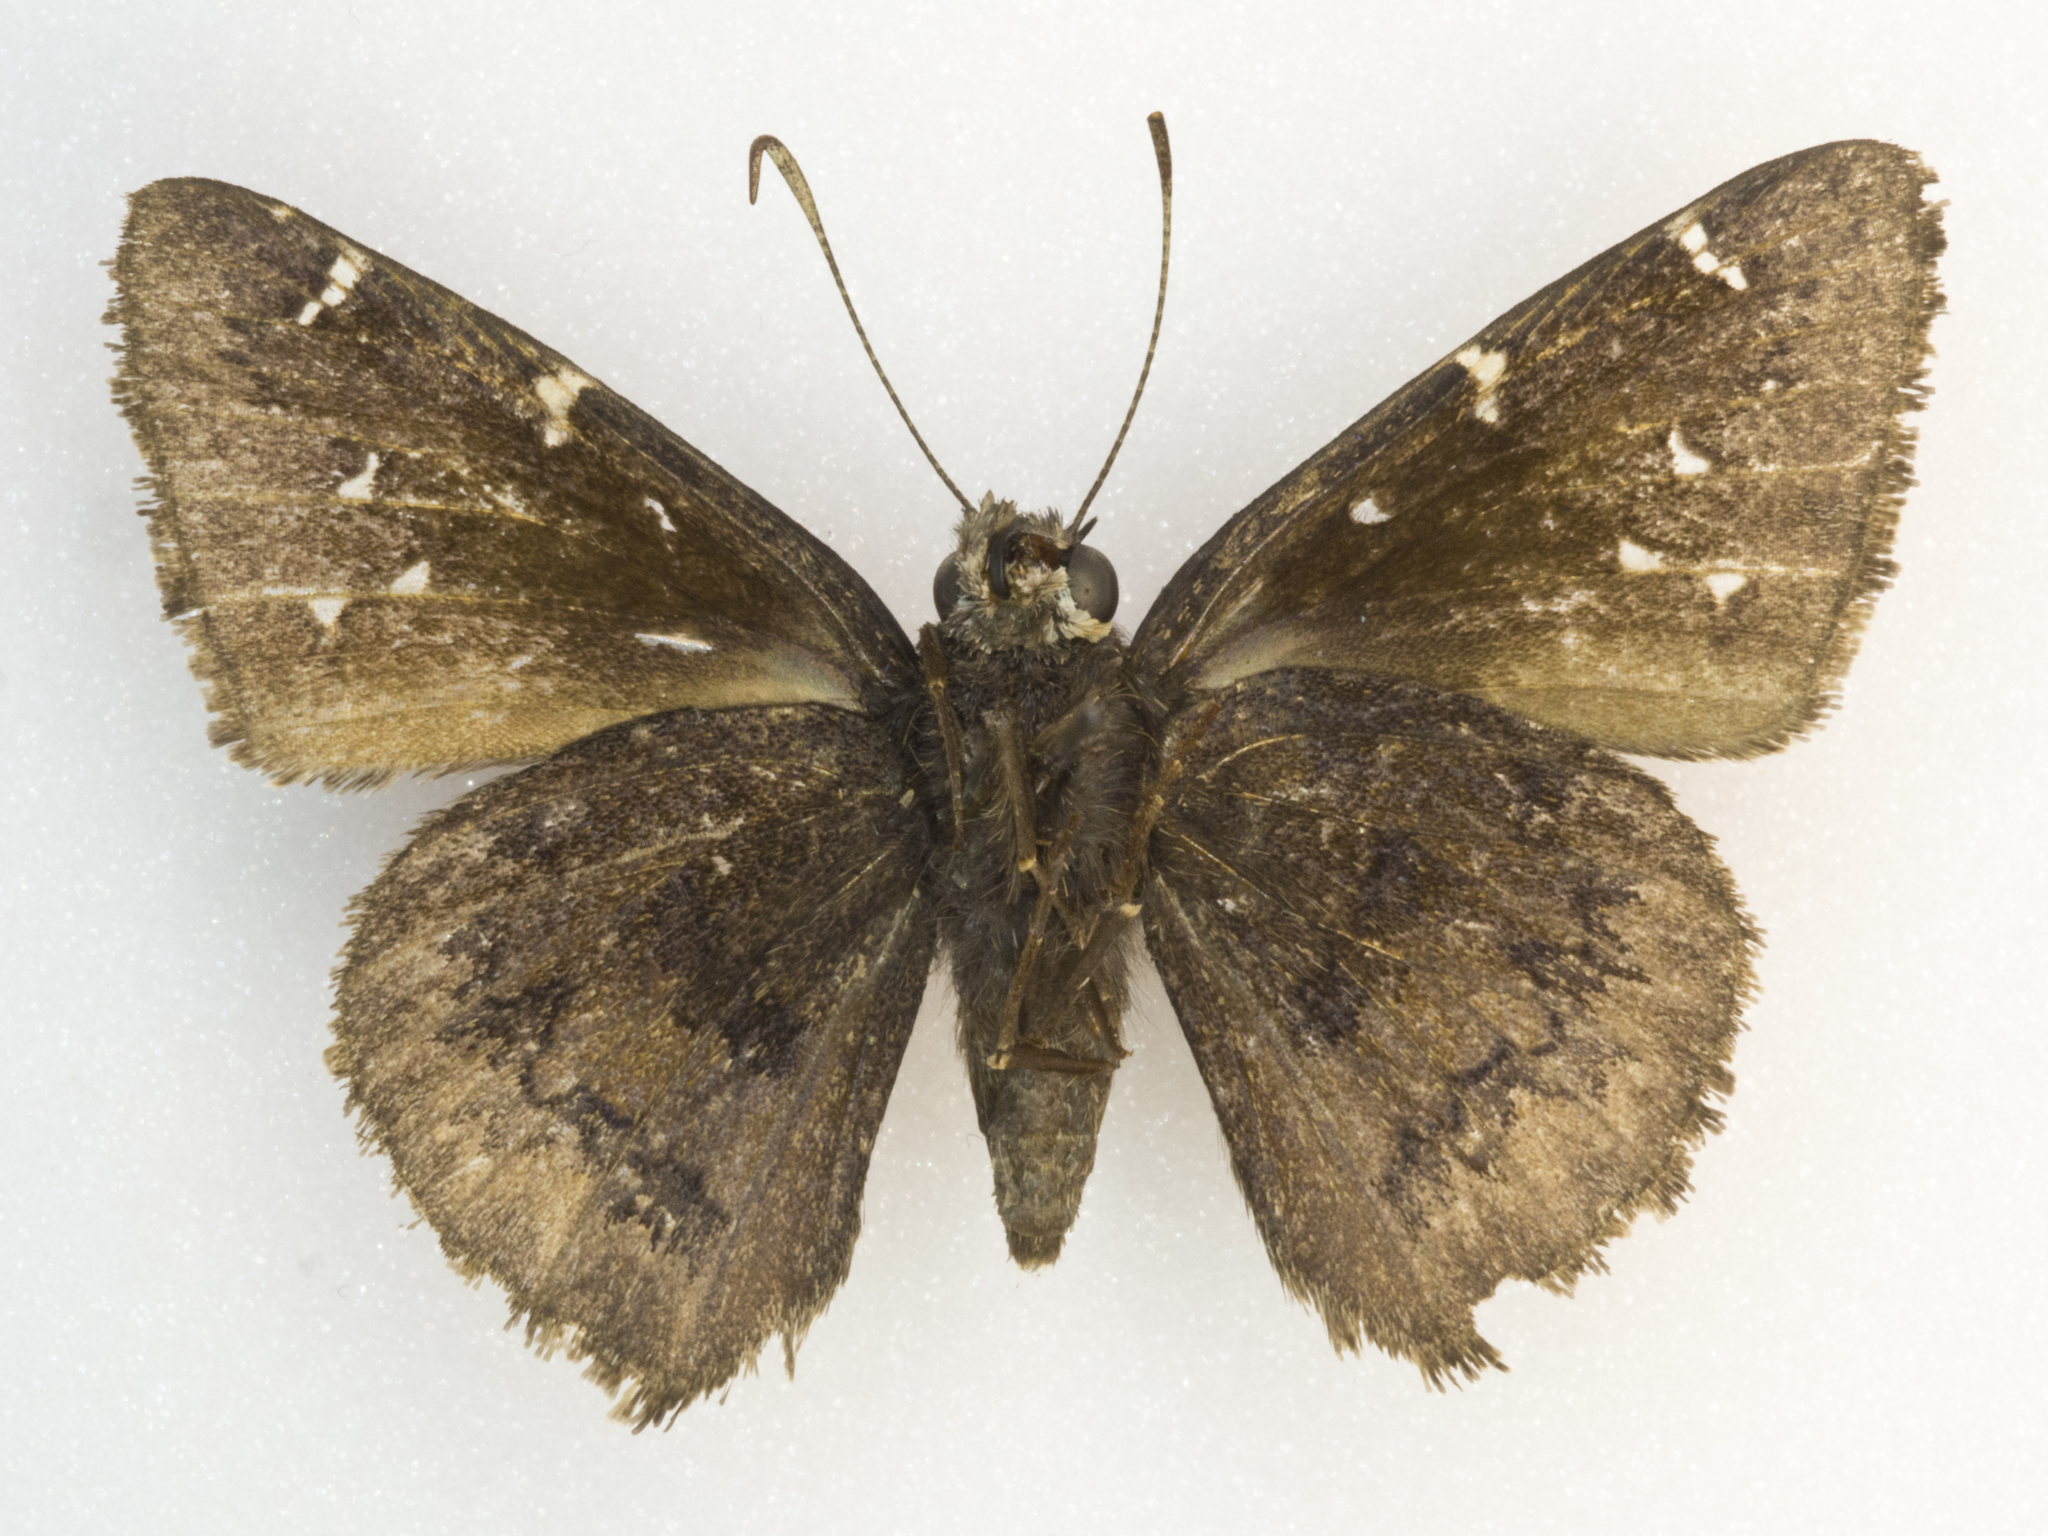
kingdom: Animalia
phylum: Arthropoda
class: Insecta
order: Lepidoptera
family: Hesperiidae
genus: Thorybes
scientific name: Thorybes pylades
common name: Northern cloudywing
